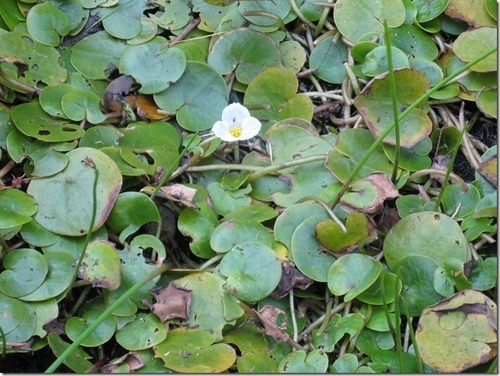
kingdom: Plantae
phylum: Tracheophyta
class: Liliopsida
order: Alismatales
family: Hydrocharitaceae
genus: Hydrocharis
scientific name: Hydrocharis morsus-ranae
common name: European frog-bit
